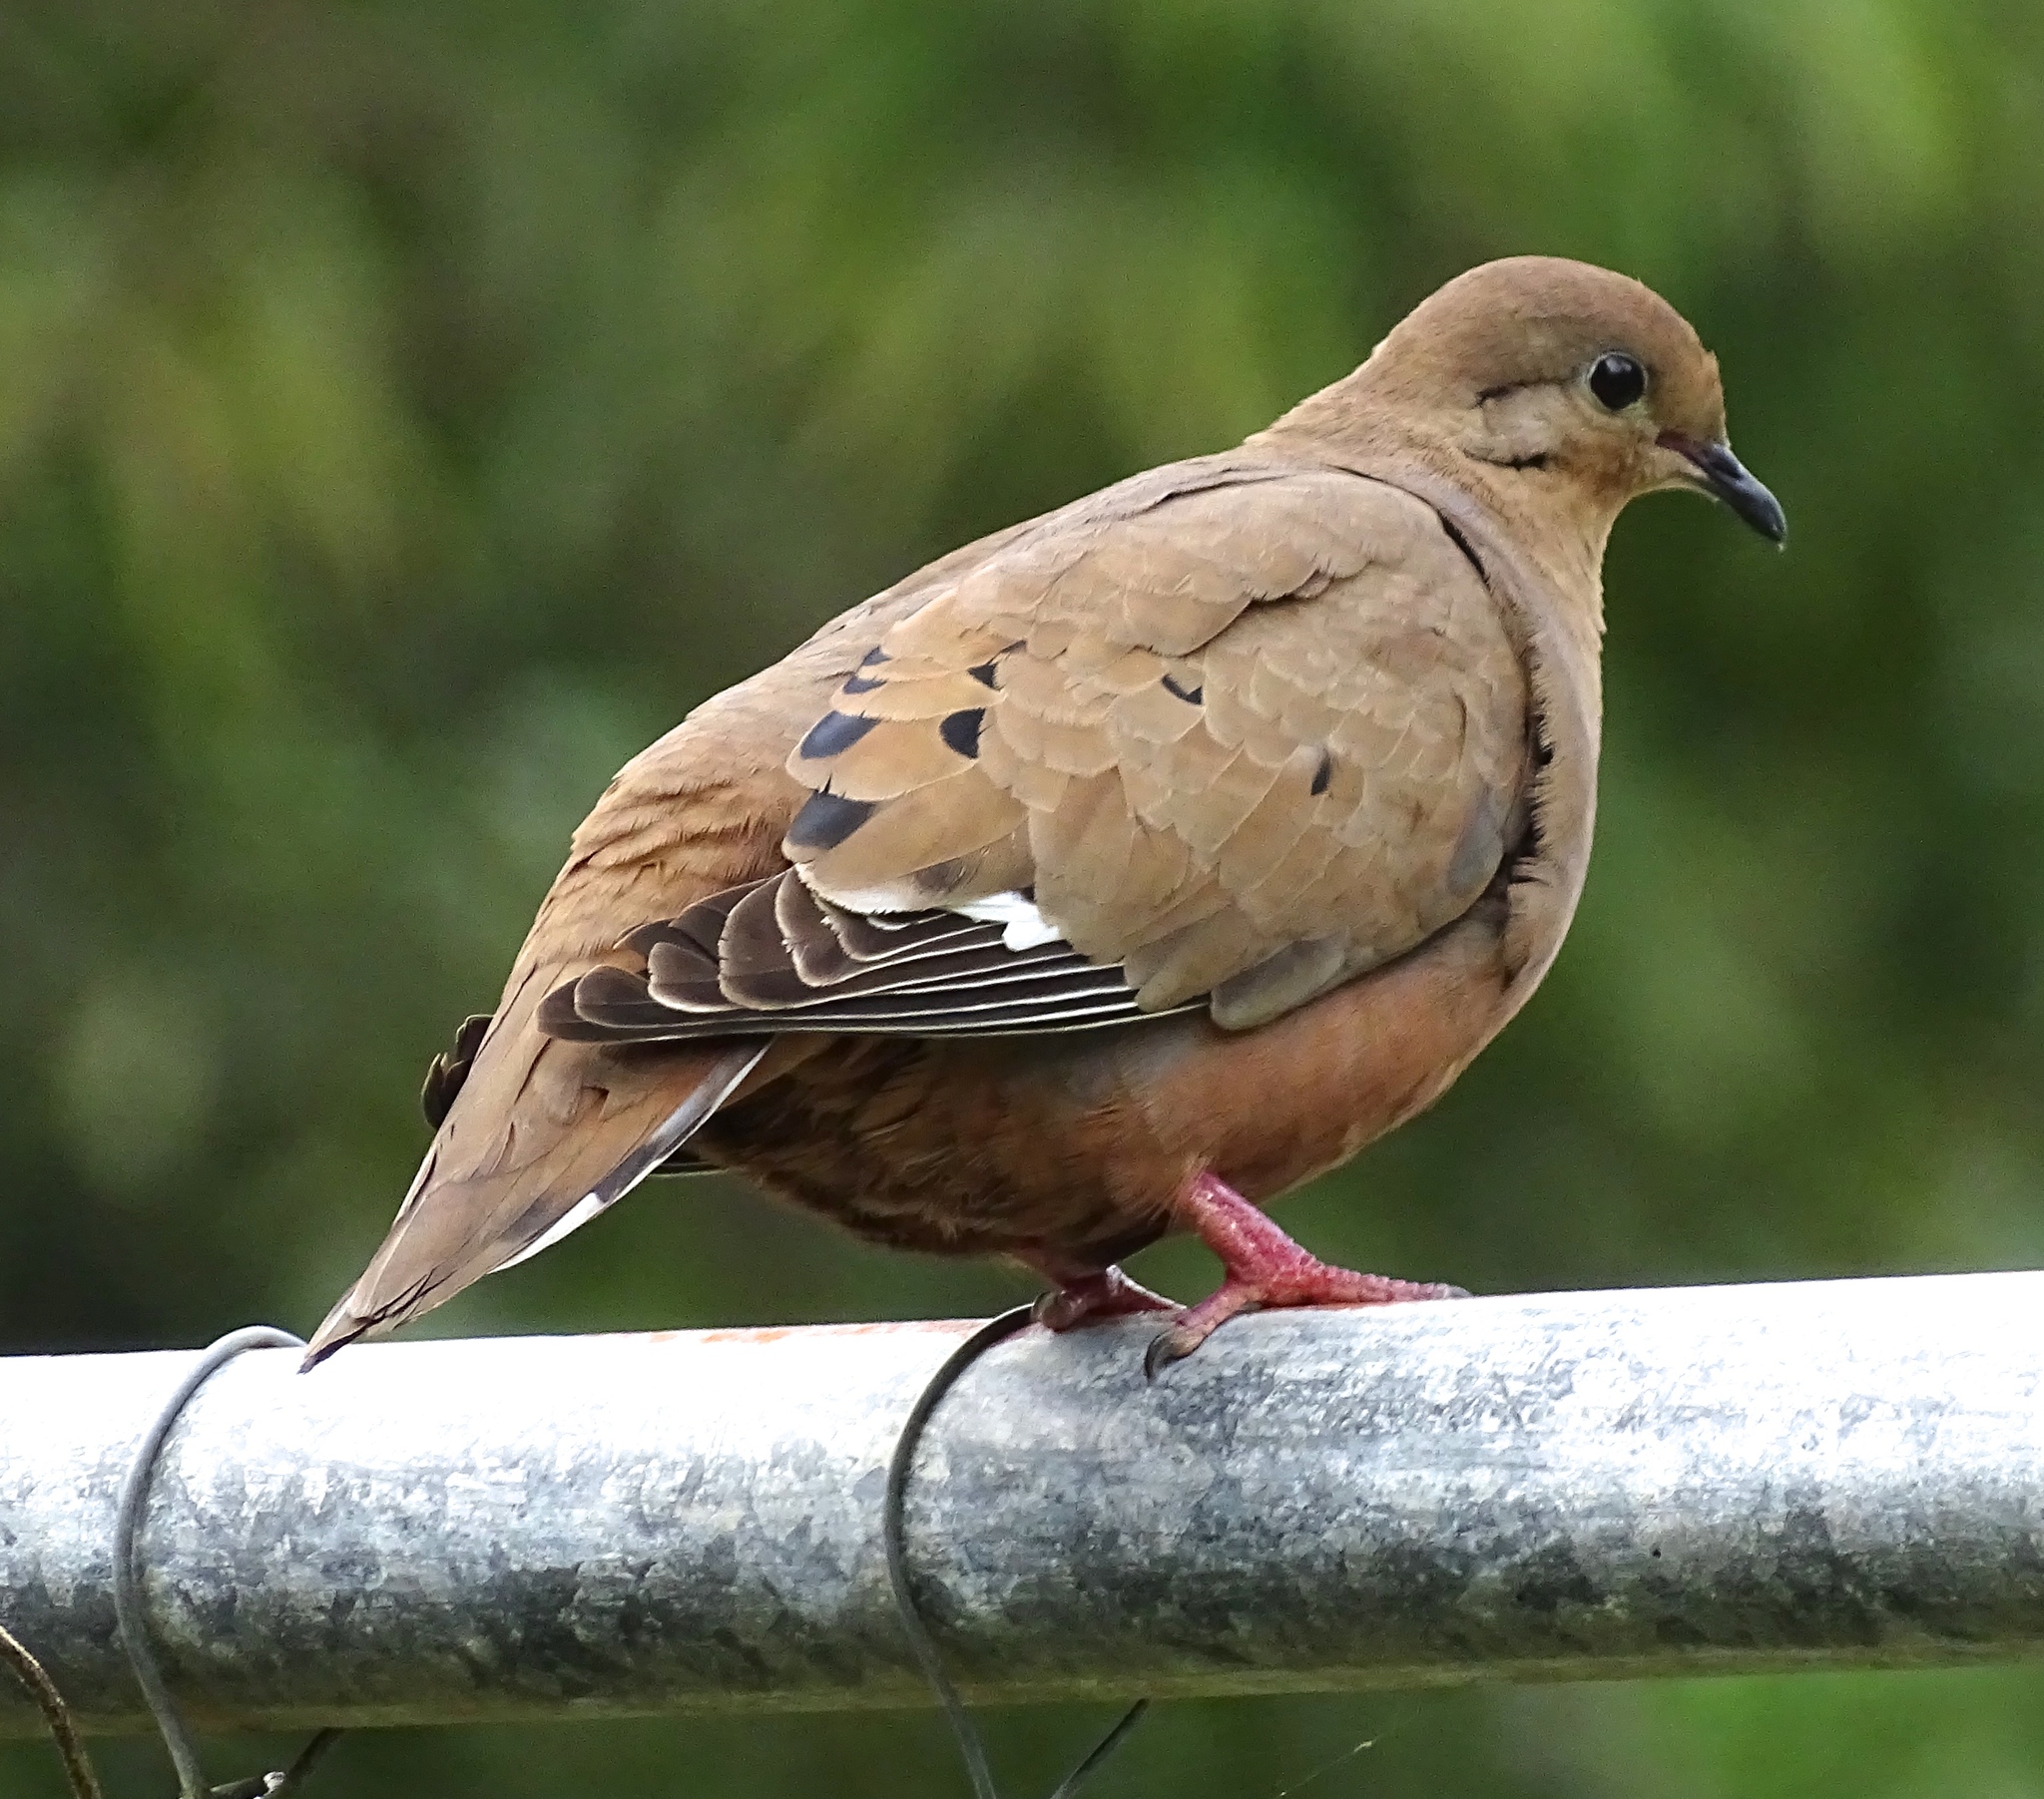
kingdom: Animalia
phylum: Chordata
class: Aves
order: Columbiformes
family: Columbidae
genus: Zenaida
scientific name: Zenaida aurita
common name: Zenaida dove
